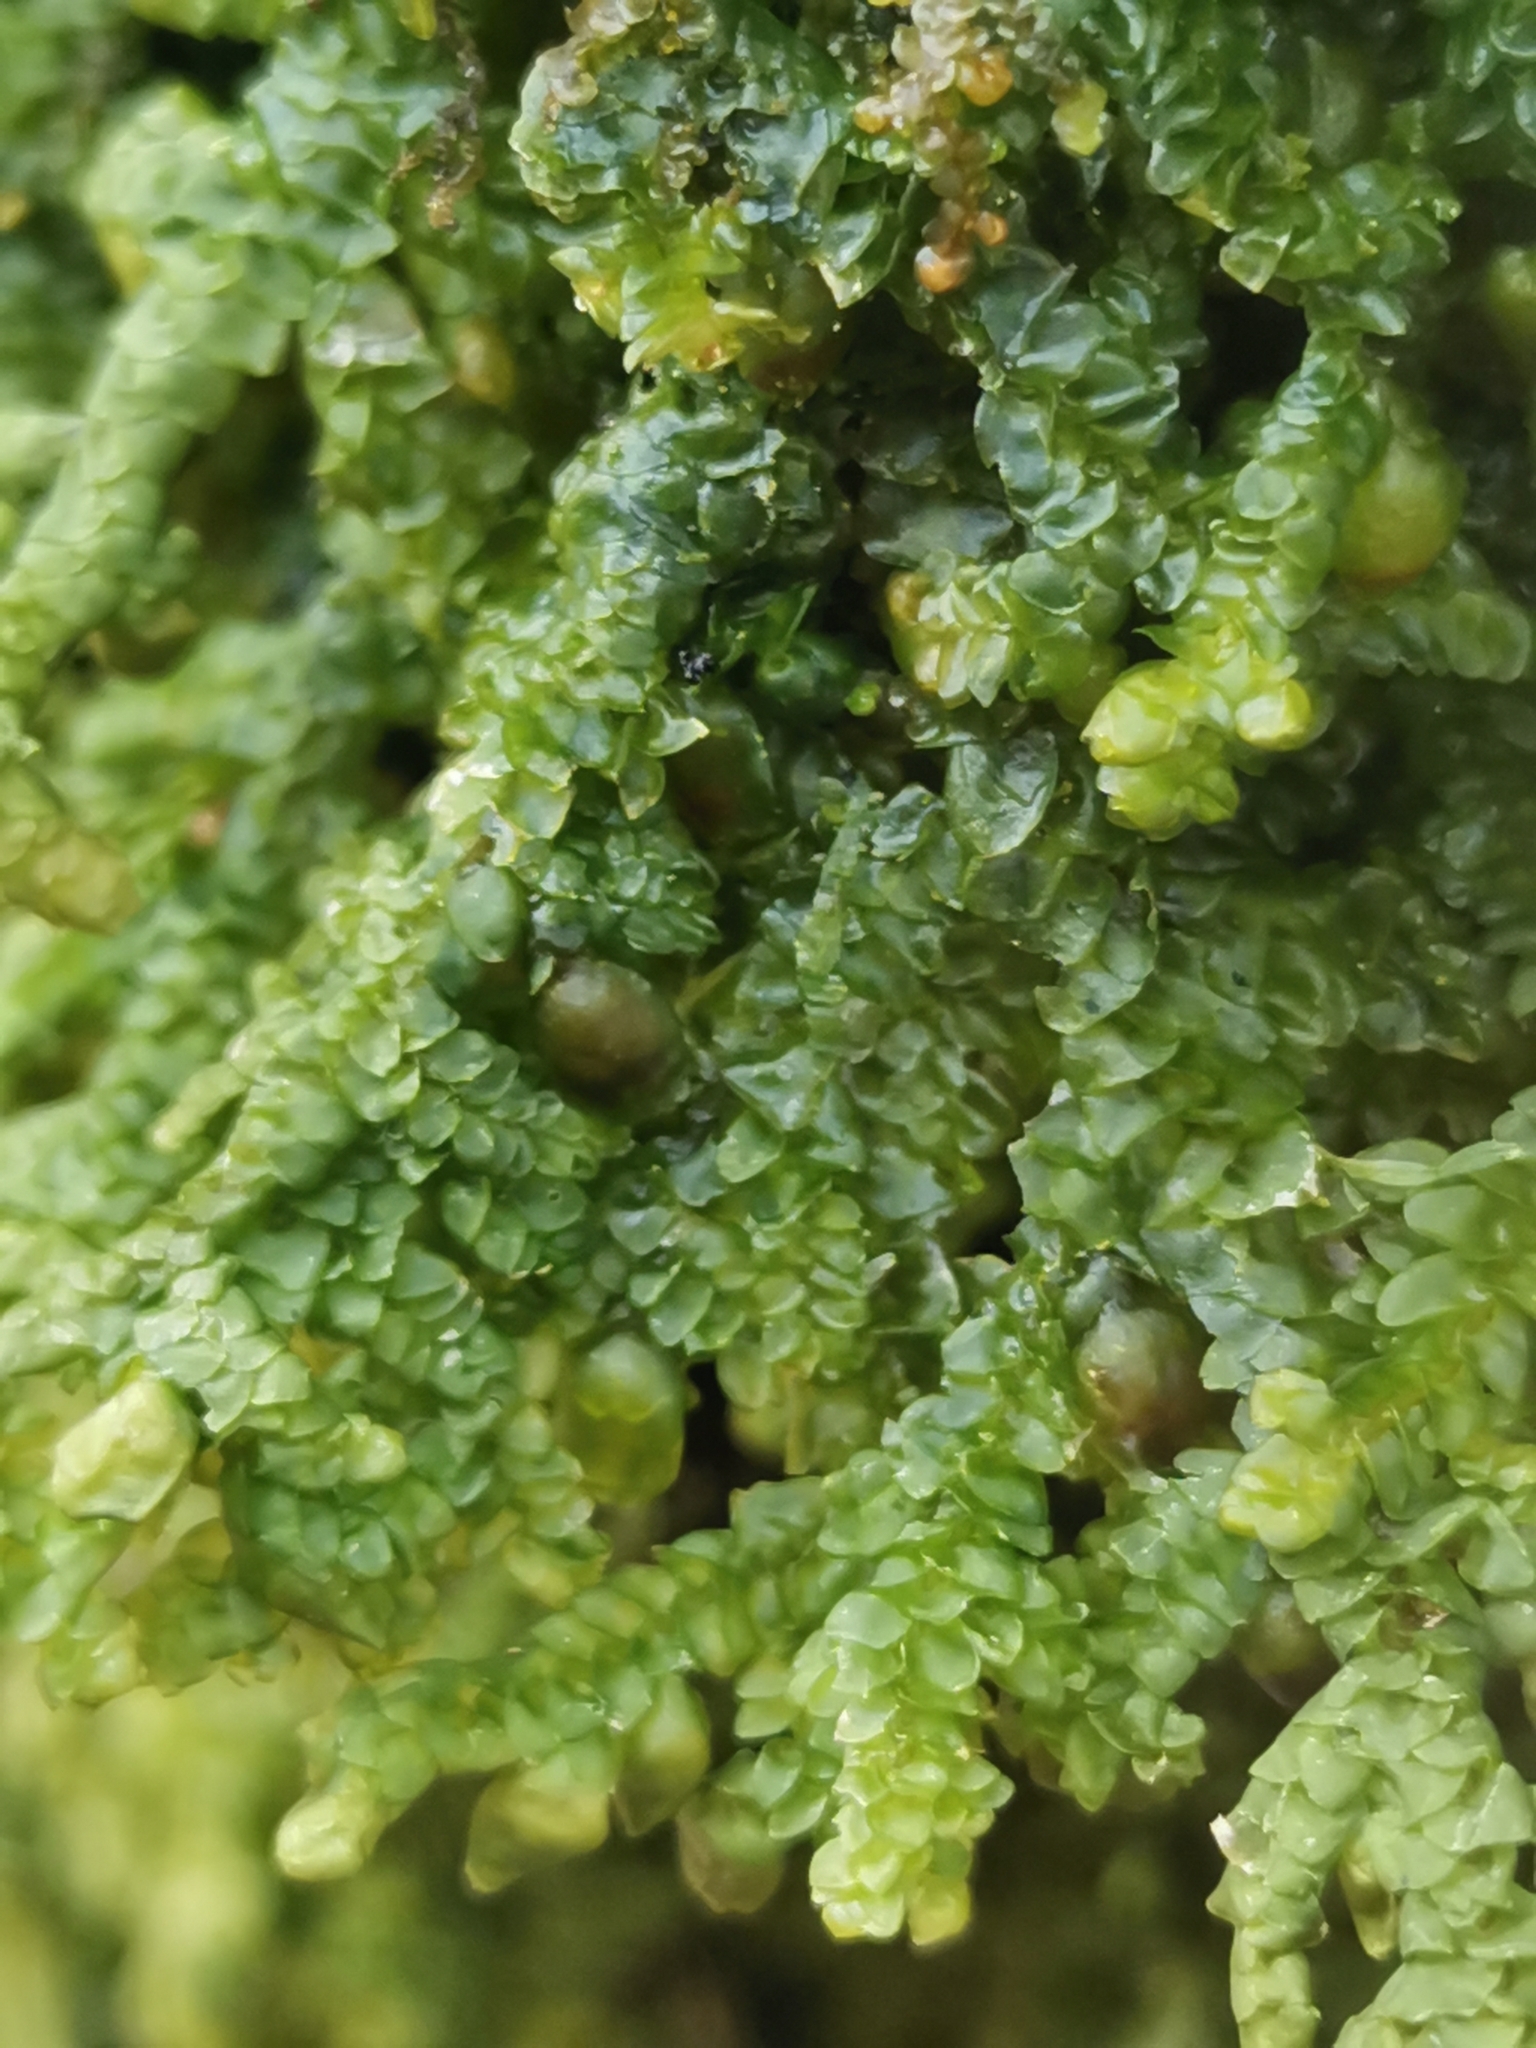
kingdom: Plantae
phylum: Marchantiophyta
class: Jungermanniopsida
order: Porellales
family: Porellaceae
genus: Porella
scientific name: Porella platyphylla
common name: Wall scalewort
